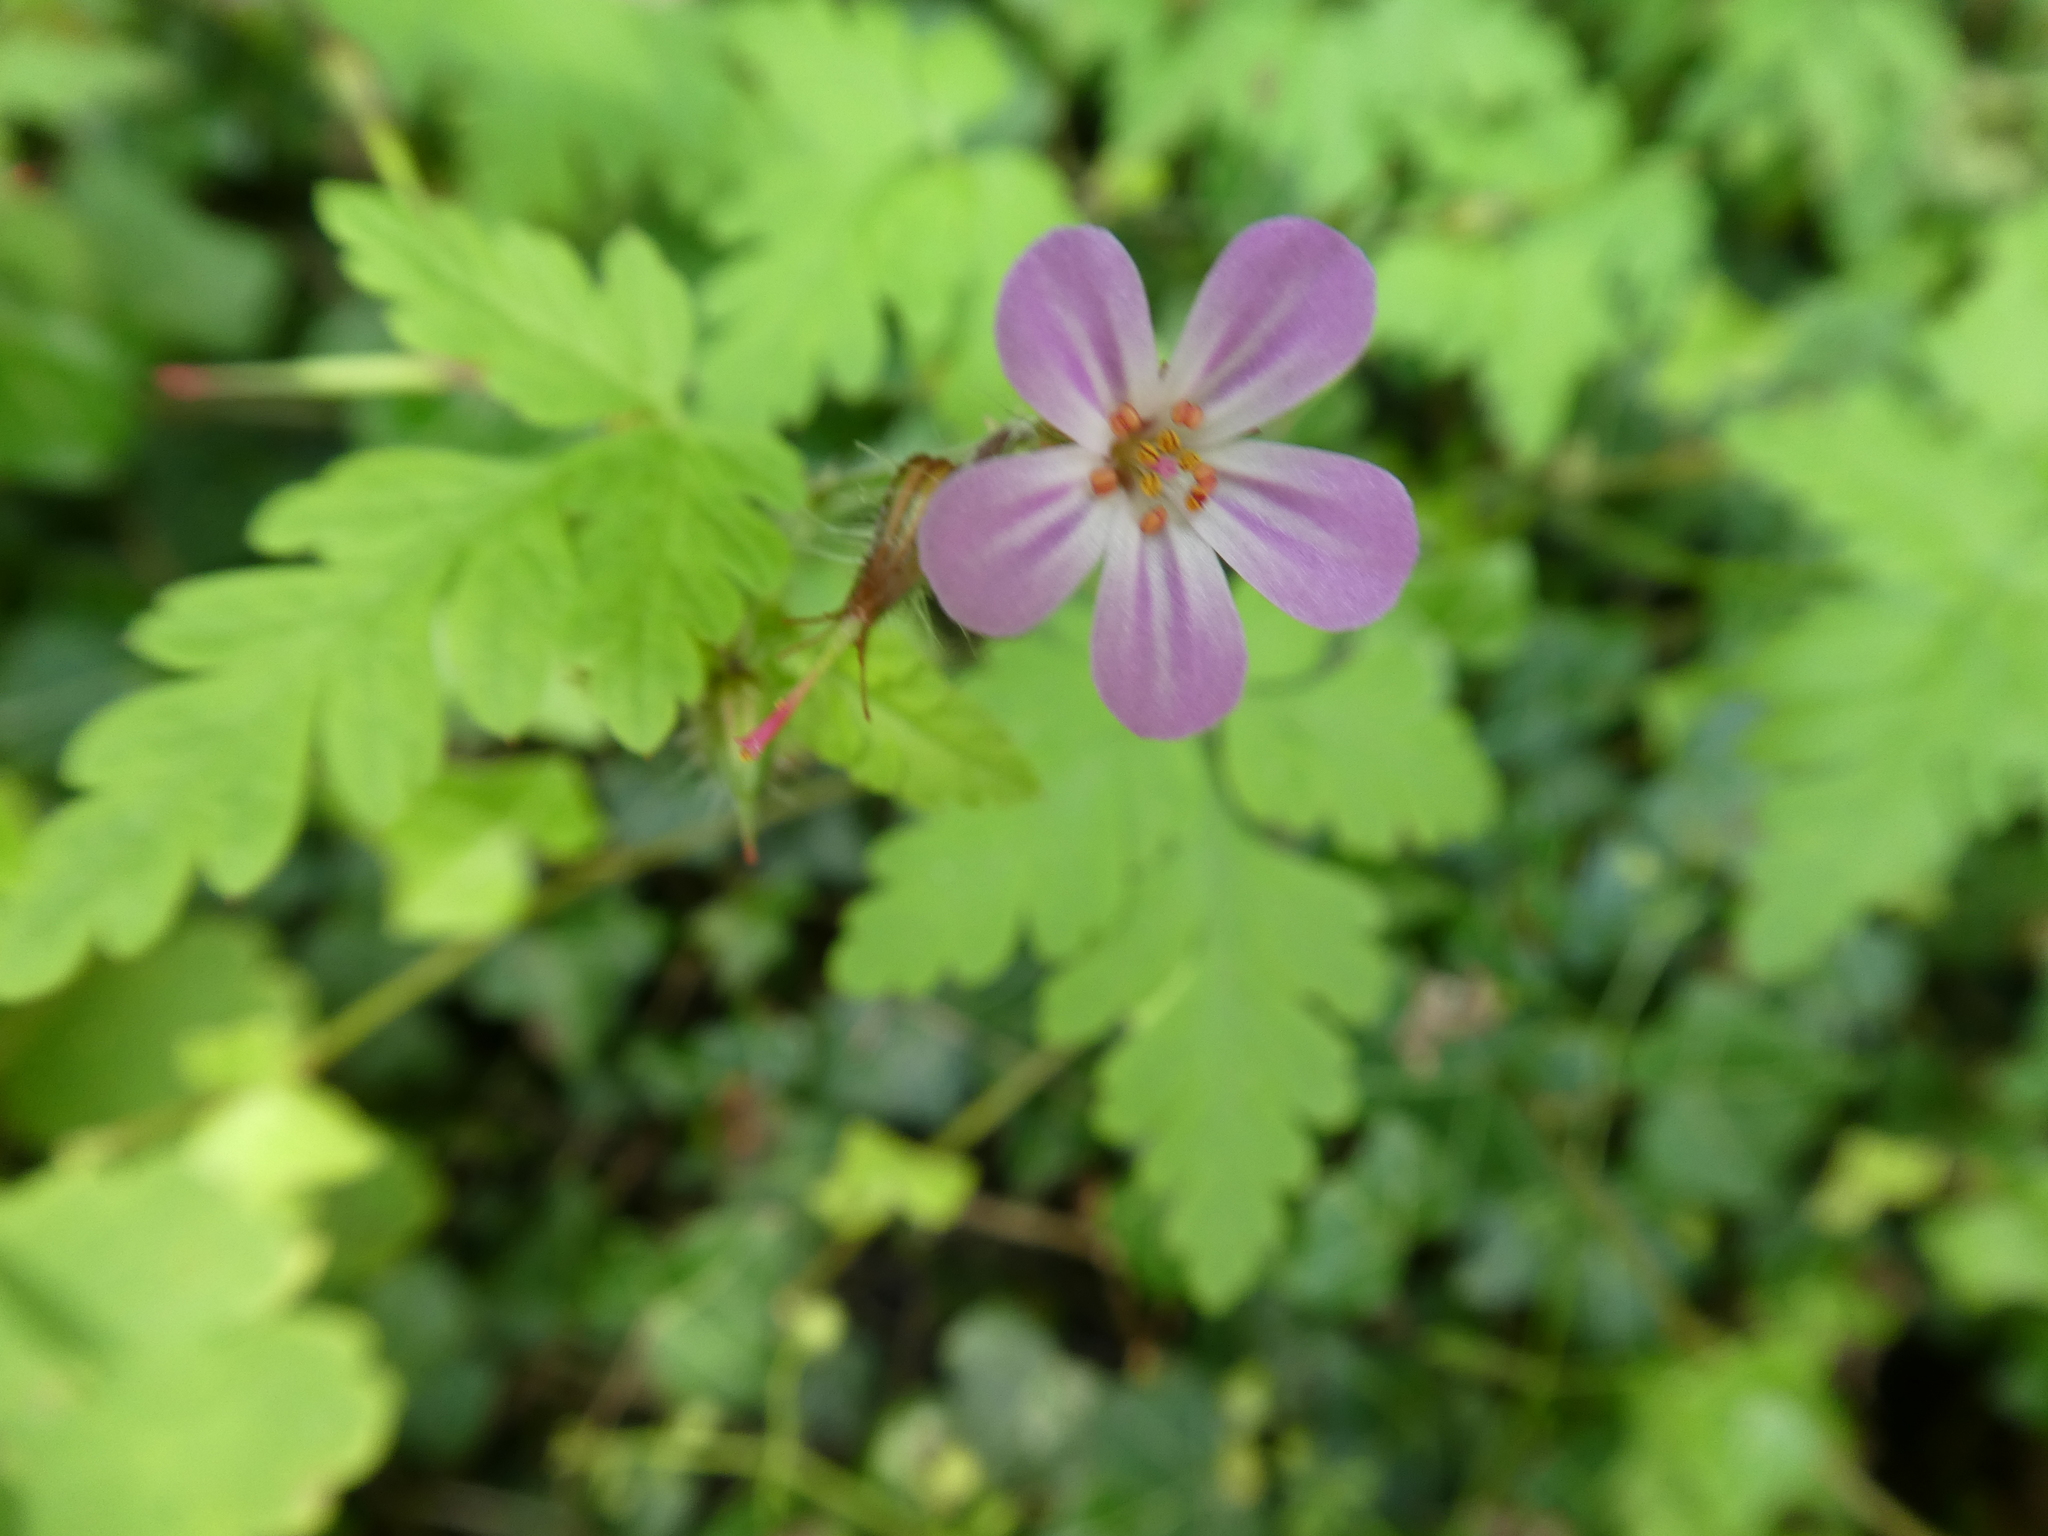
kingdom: Plantae
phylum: Tracheophyta
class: Magnoliopsida
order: Geraniales
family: Geraniaceae
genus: Geranium
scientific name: Geranium robertianum
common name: Herb-robert
